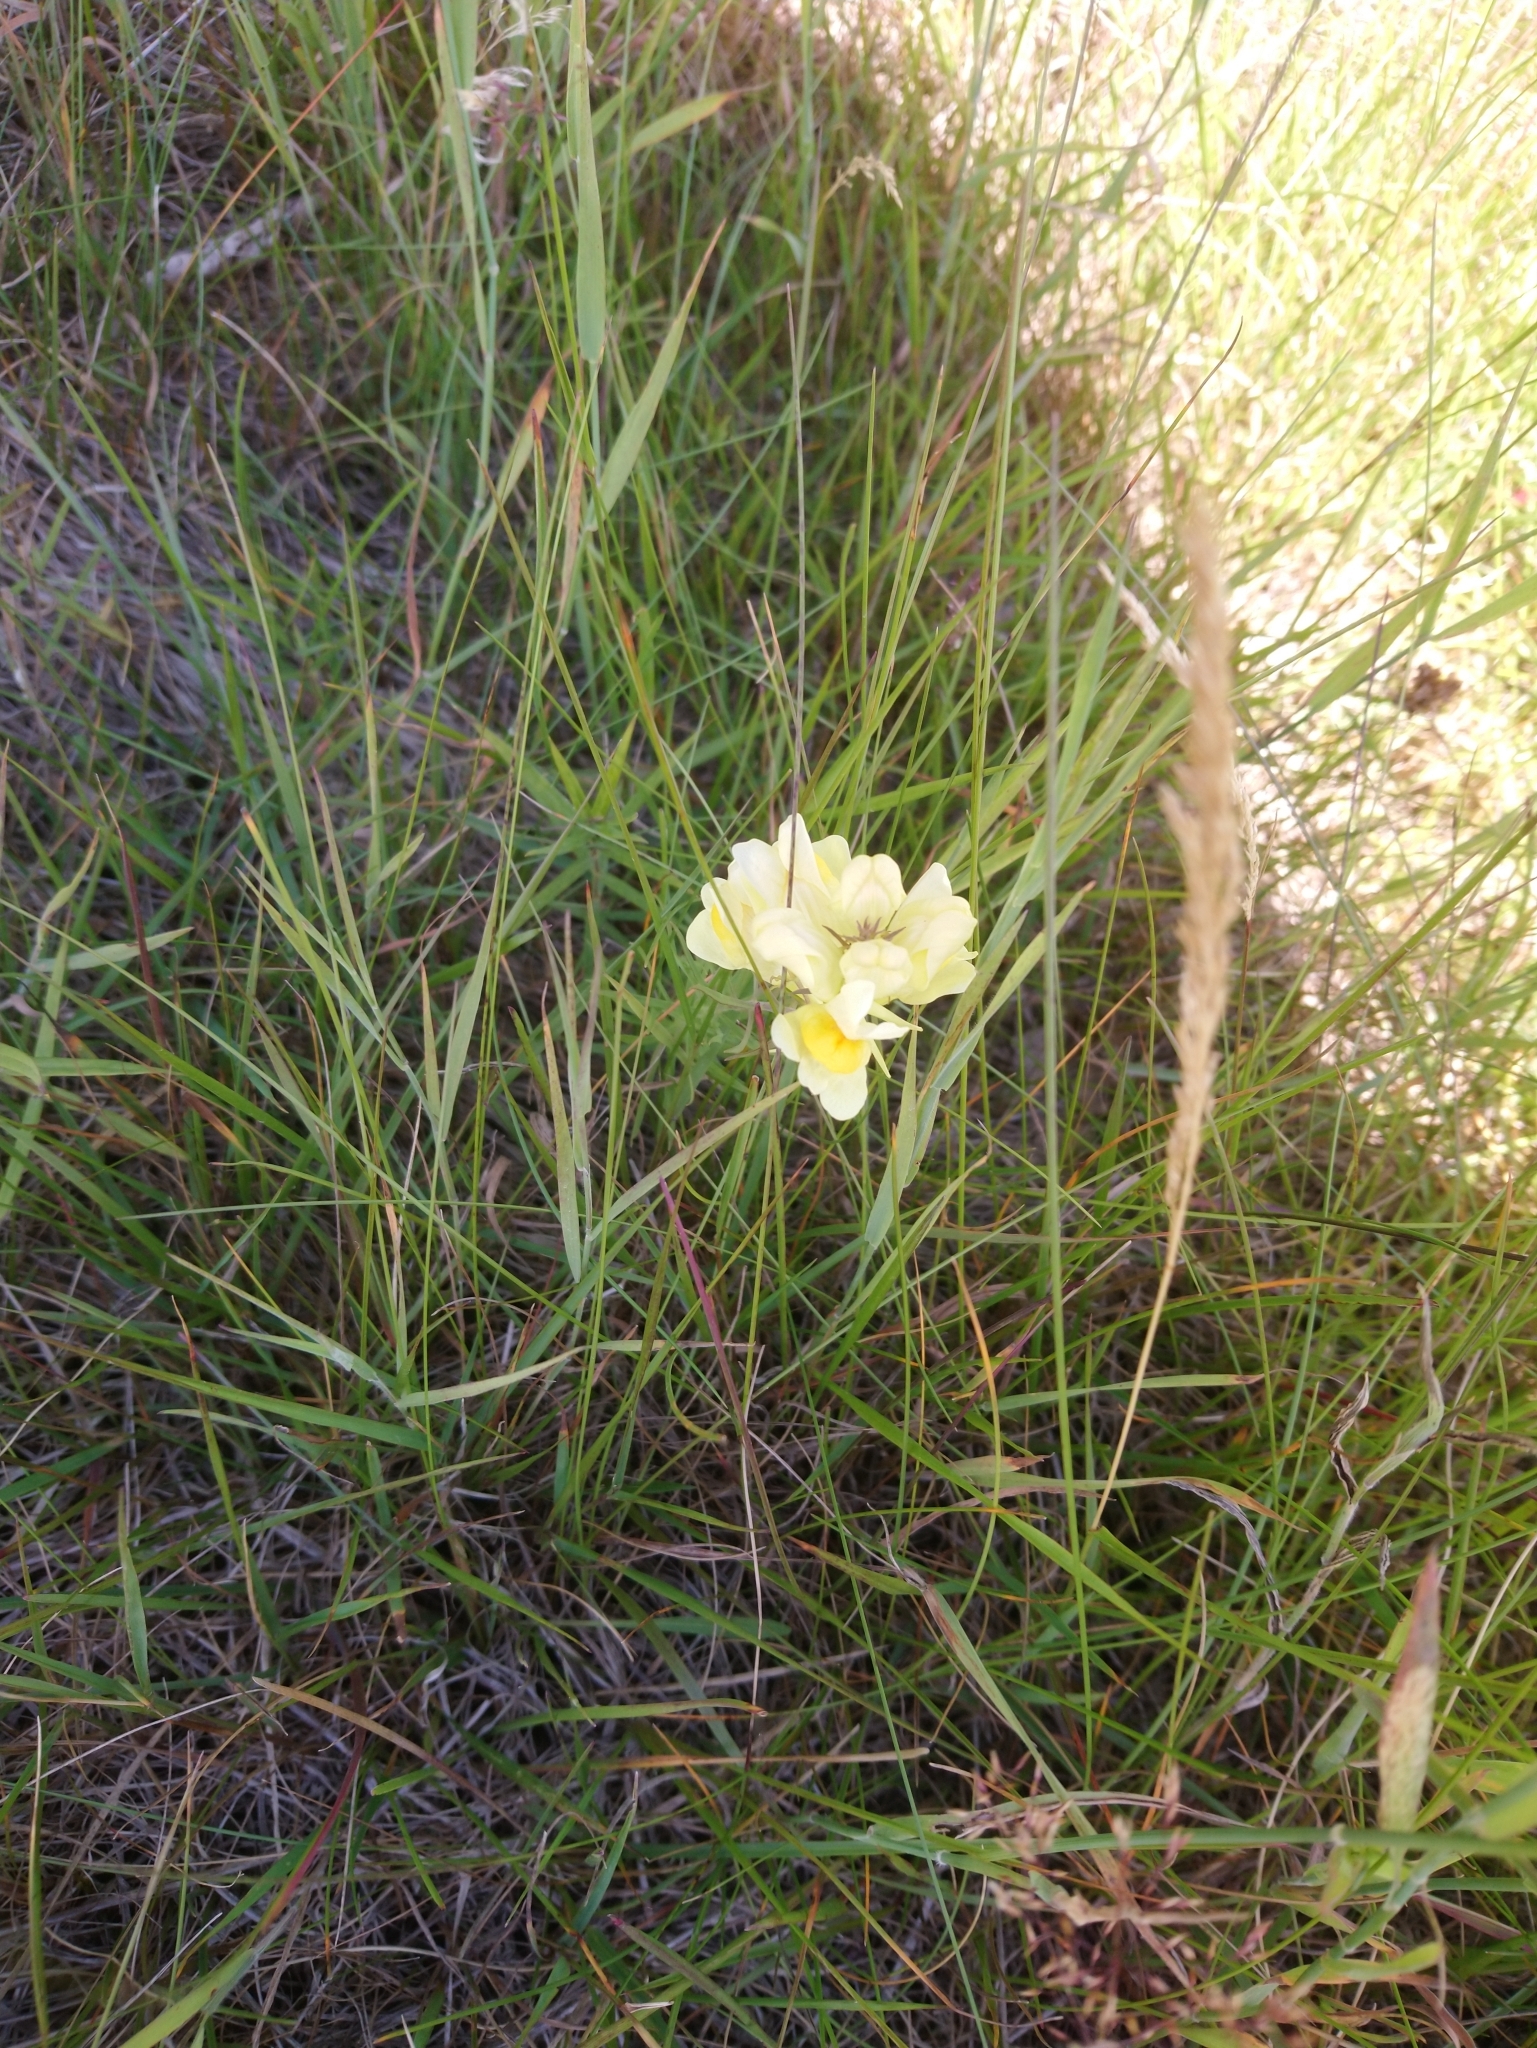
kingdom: Plantae
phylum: Tracheophyta
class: Magnoliopsida
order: Lamiales
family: Plantaginaceae
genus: Linaria
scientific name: Linaria vulgaris
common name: Butter and eggs
